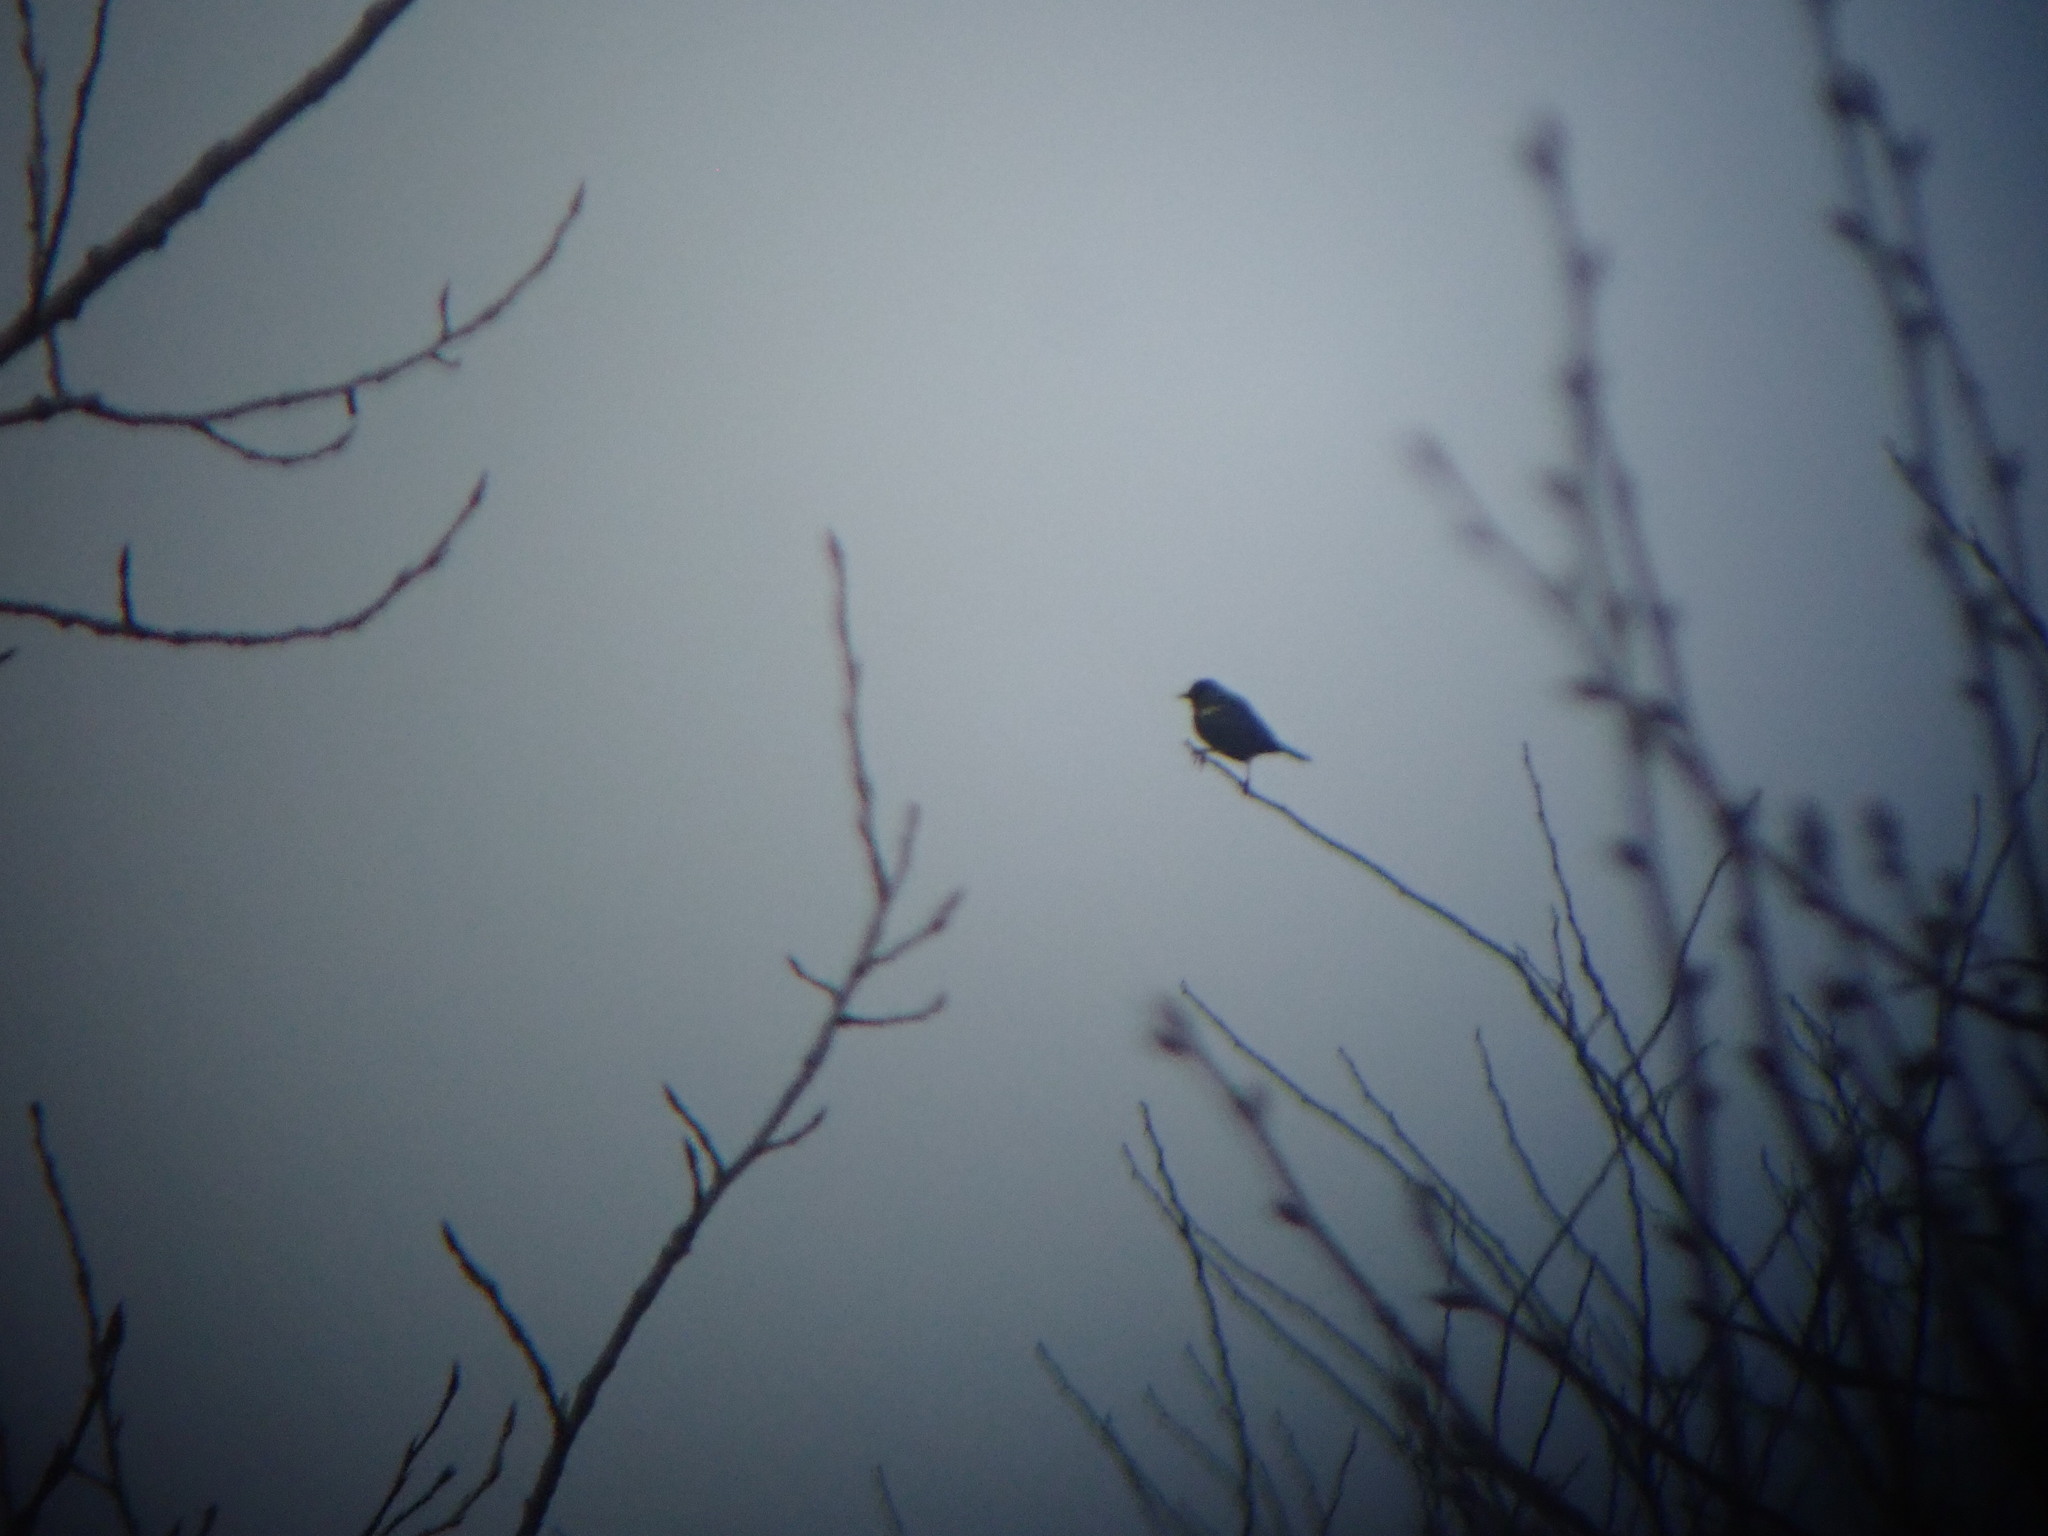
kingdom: Animalia
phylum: Chordata
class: Aves
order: Passeriformes
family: Icteridae
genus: Agelaius
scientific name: Agelaius phoeniceus
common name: Red-winged blackbird
